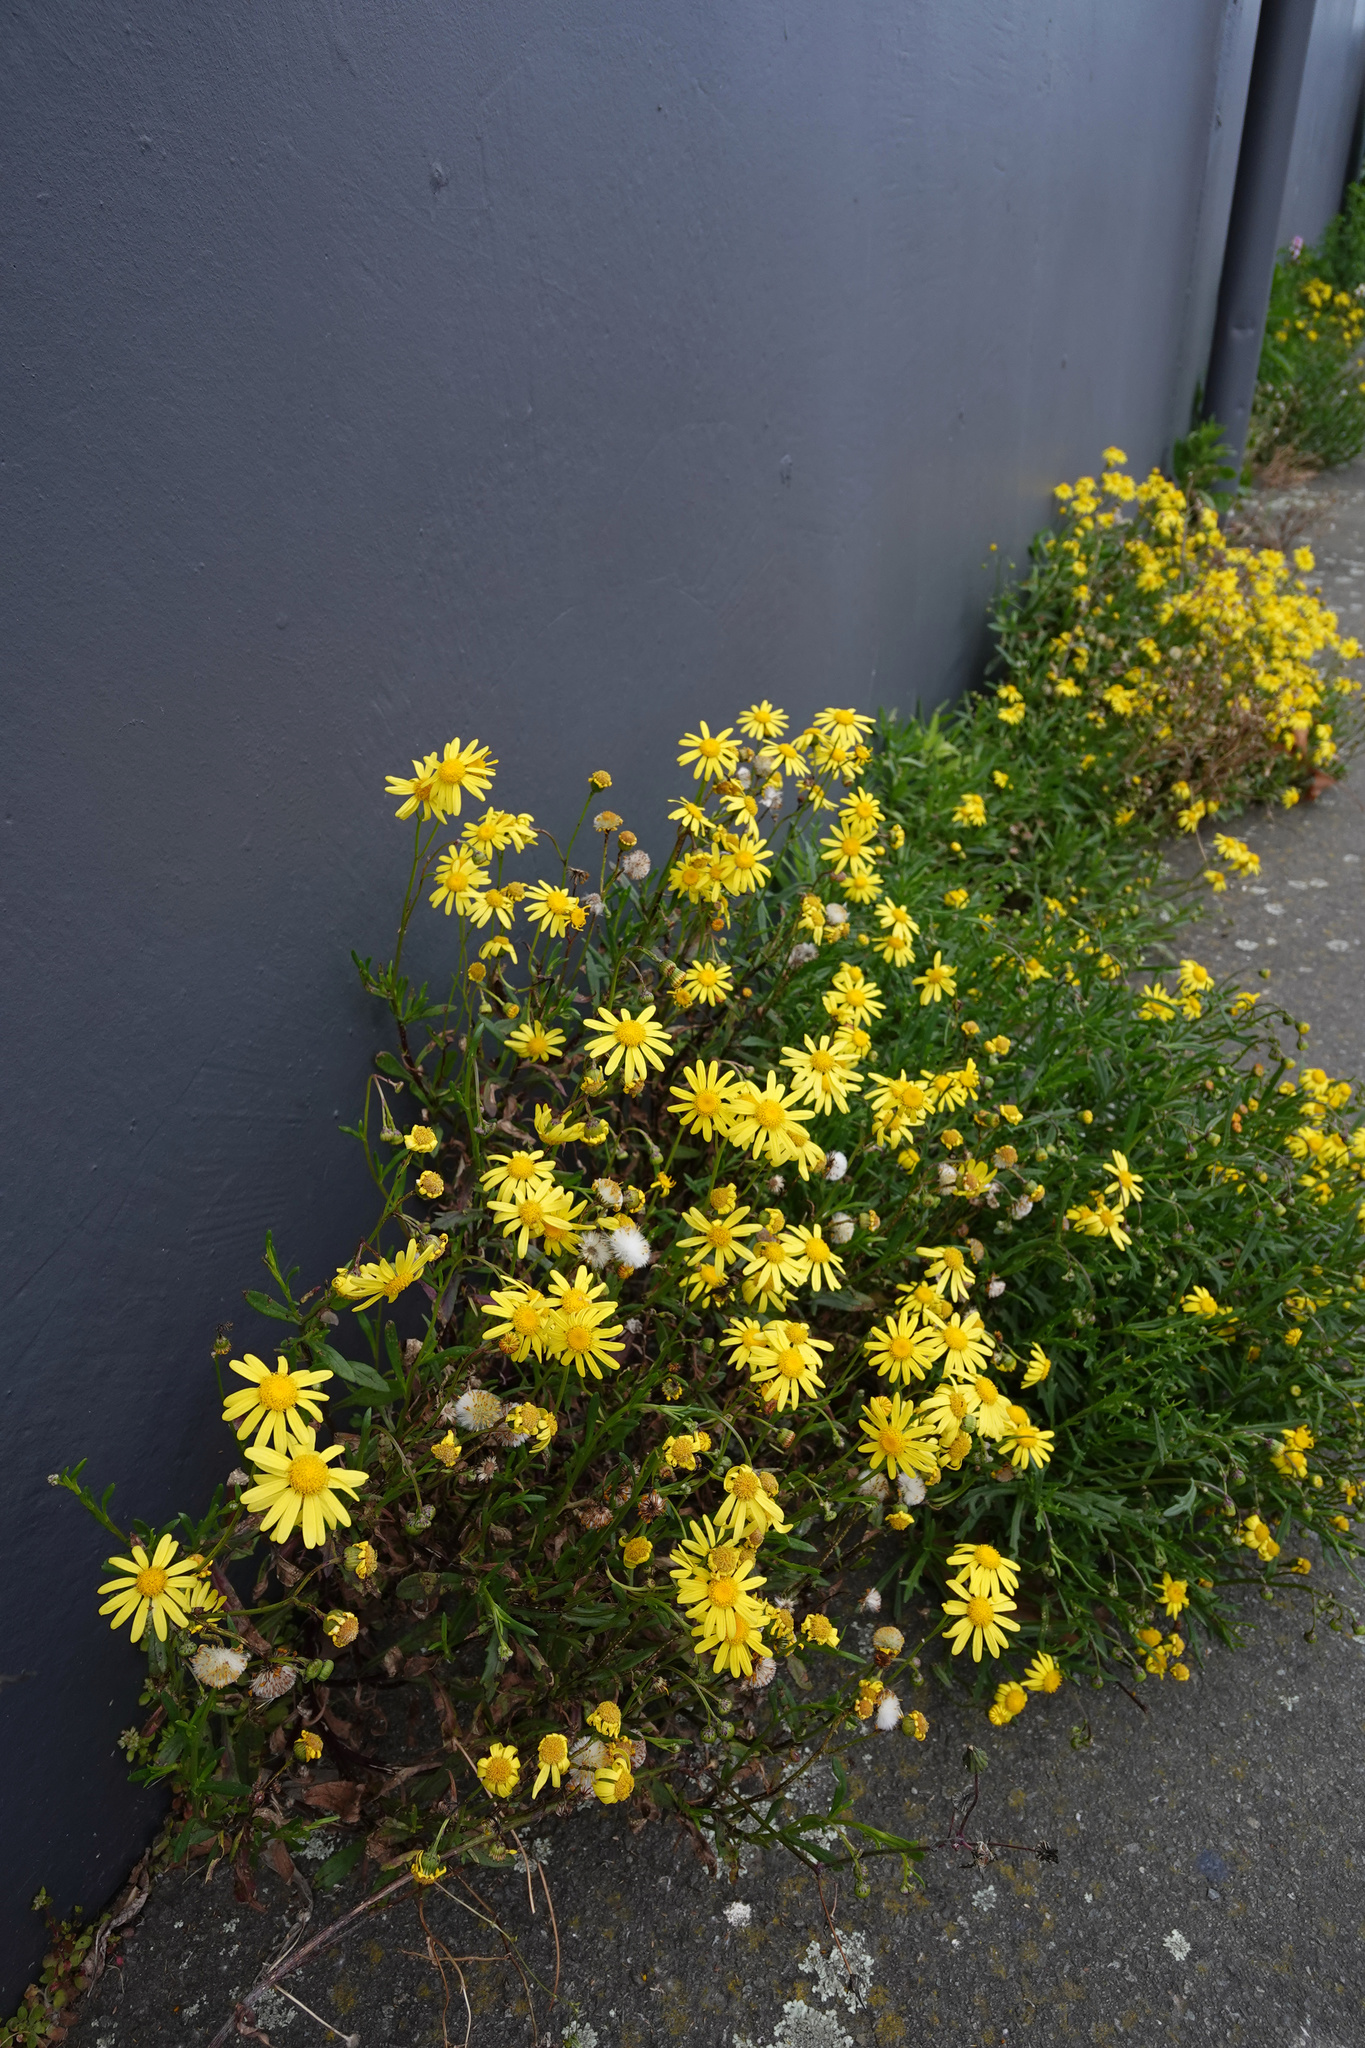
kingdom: Plantae
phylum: Tracheophyta
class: Magnoliopsida
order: Asterales
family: Asteraceae
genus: Senecio
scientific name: Senecio skirrhodon
